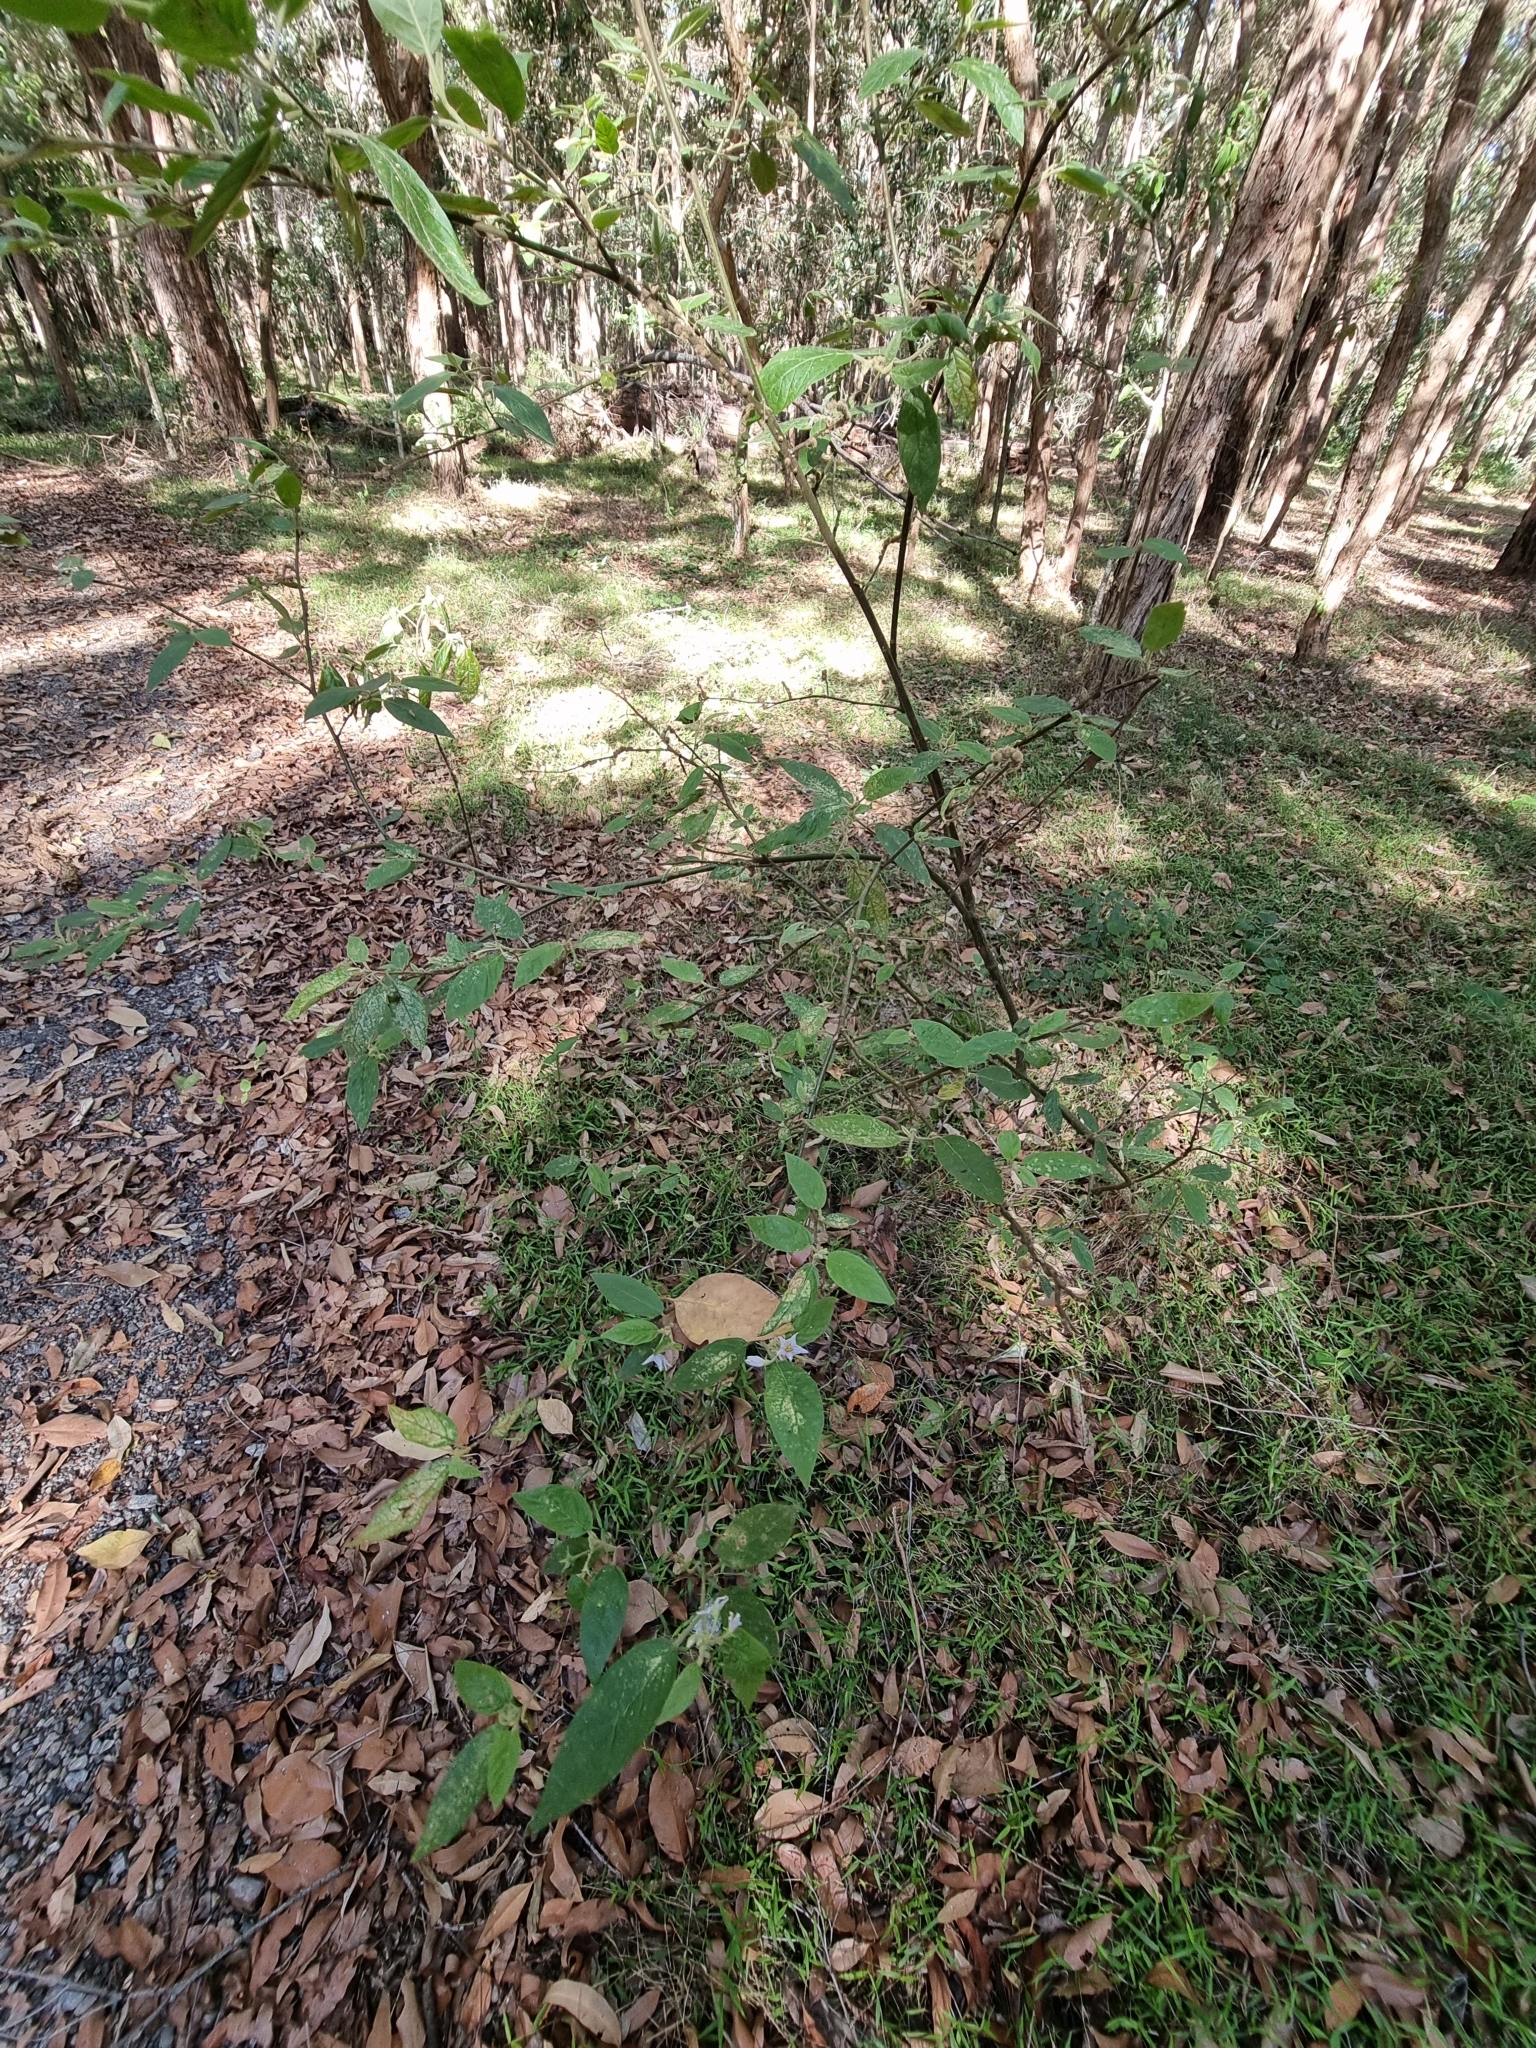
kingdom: Plantae
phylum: Tracheophyta
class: Magnoliopsida
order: Solanales
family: Solanaceae
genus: Solanum
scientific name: Solanum stelligerum
